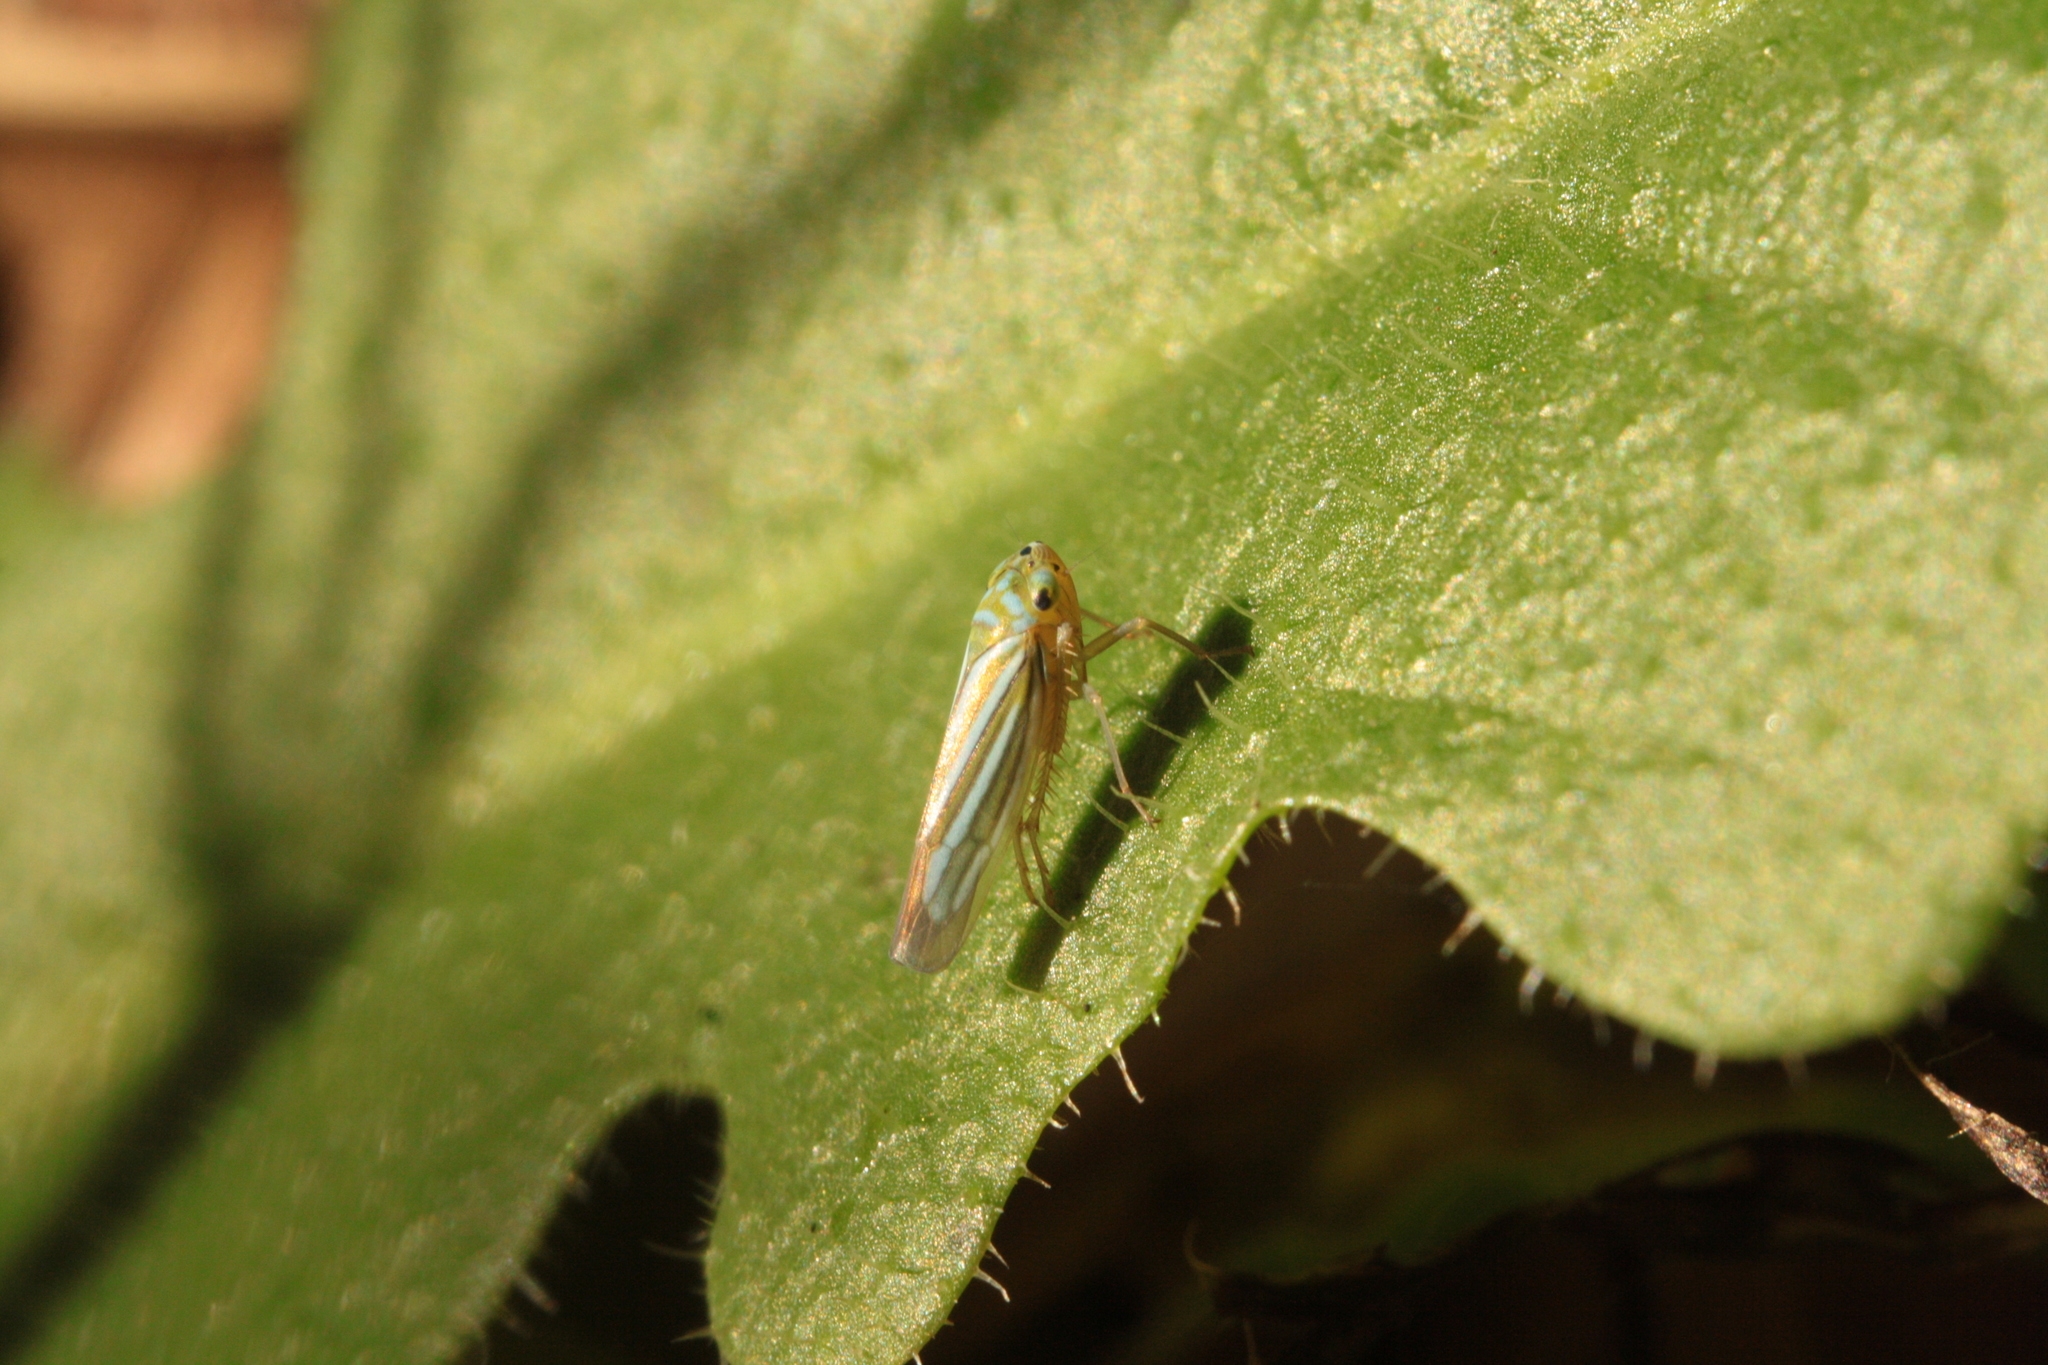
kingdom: Animalia
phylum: Arthropoda
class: Insecta
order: Hemiptera
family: Cicadellidae
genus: Chlorogonalia
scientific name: Chlorogonalia coeruleovittata
